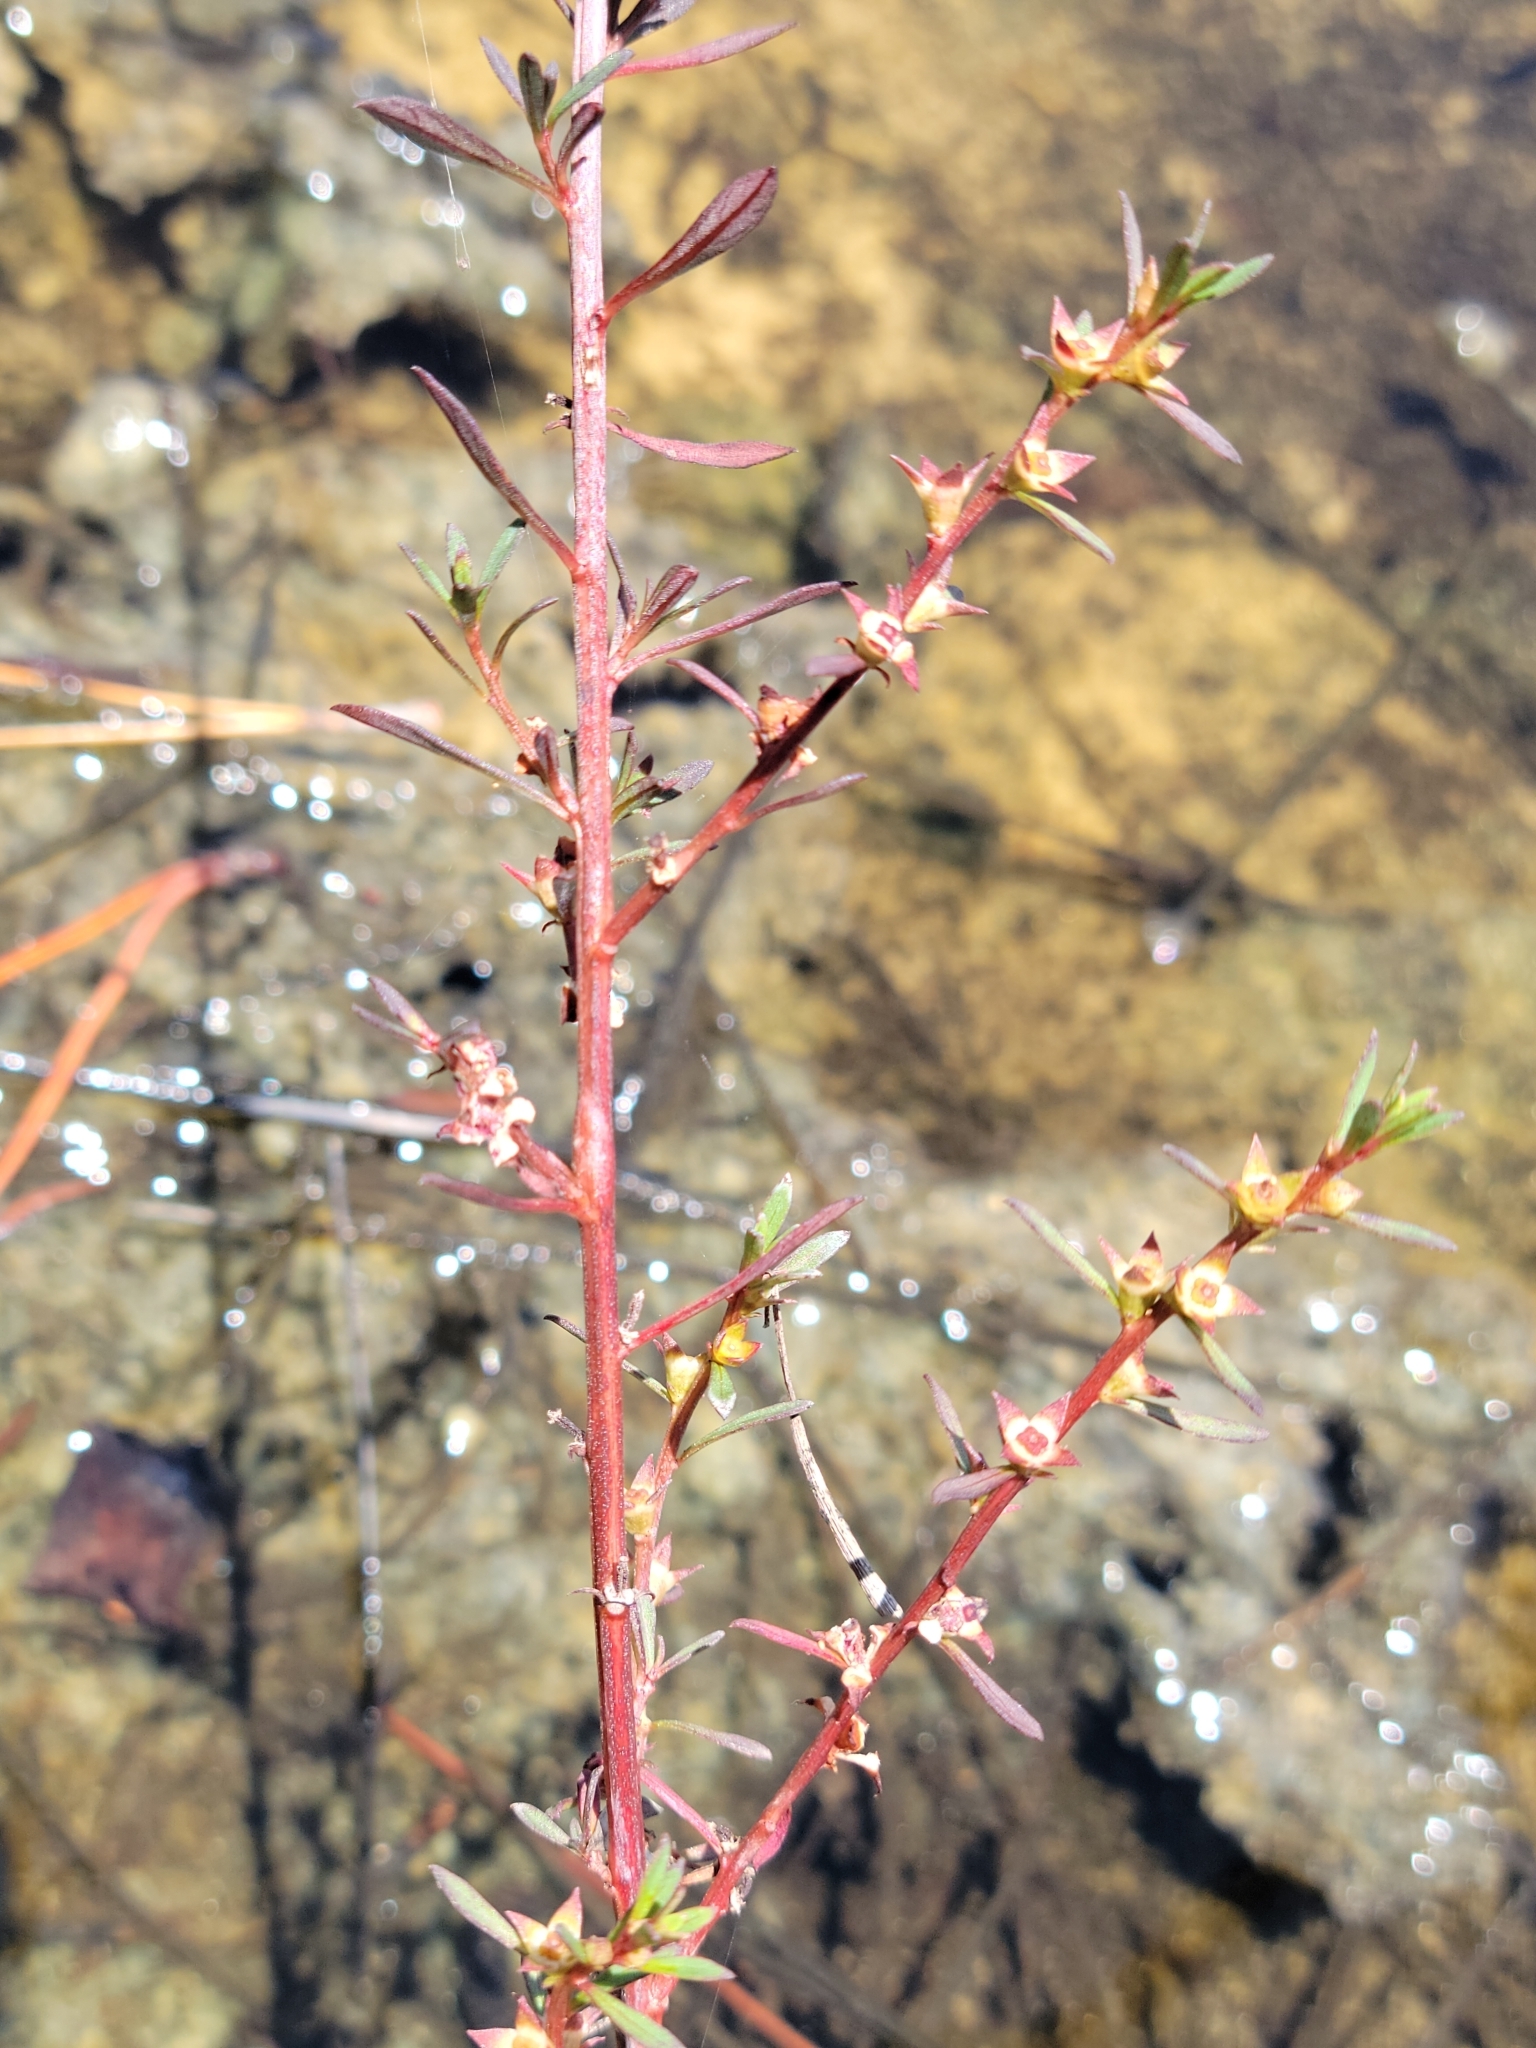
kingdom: Plantae
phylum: Tracheophyta
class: Magnoliopsida
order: Myrtales
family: Onagraceae
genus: Ludwigia
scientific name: Ludwigia curtissii
